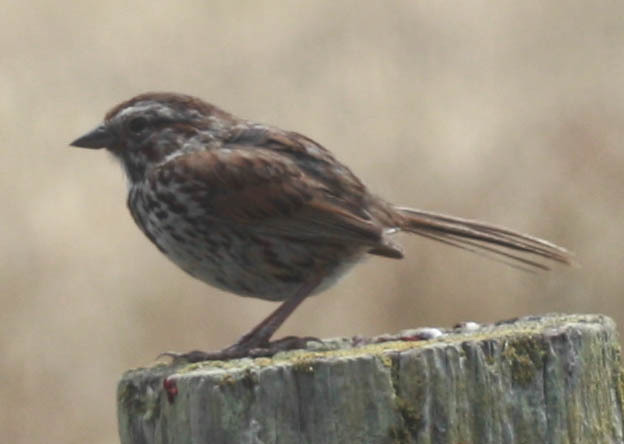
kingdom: Animalia
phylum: Chordata
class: Aves
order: Passeriformes
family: Passerellidae
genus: Melospiza
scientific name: Melospiza melodia
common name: Song sparrow
